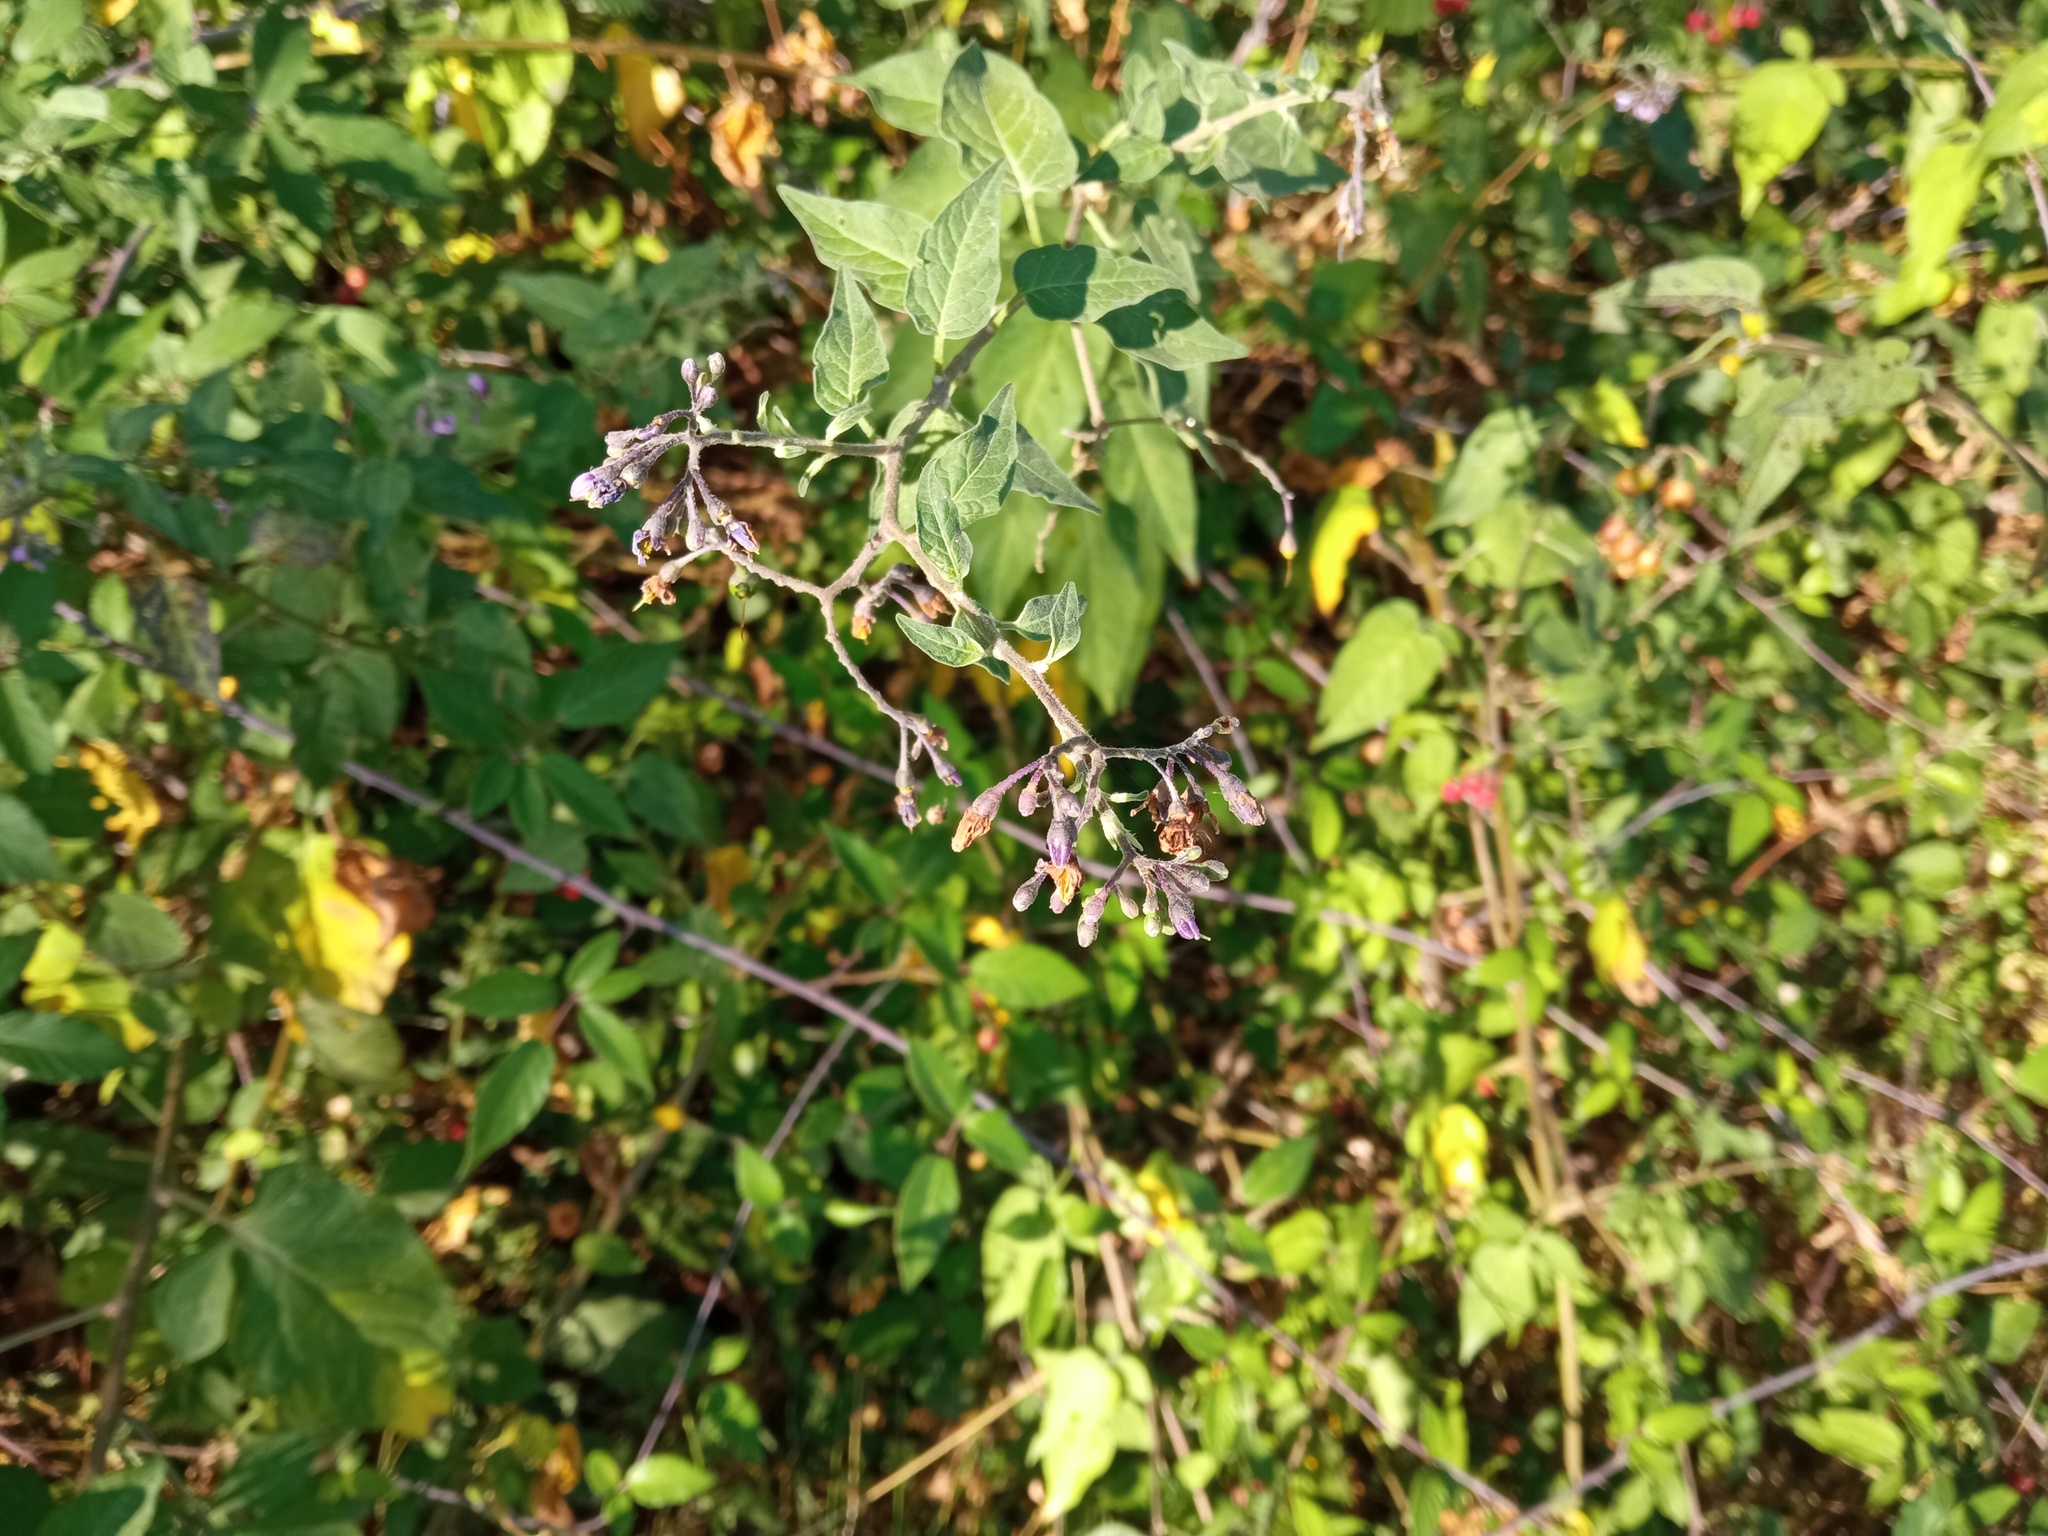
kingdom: Plantae
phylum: Tracheophyta
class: Magnoliopsida
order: Solanales
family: Solanaceae
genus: Solanum
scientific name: Solanum dulcamara
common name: Climbing nightshade
